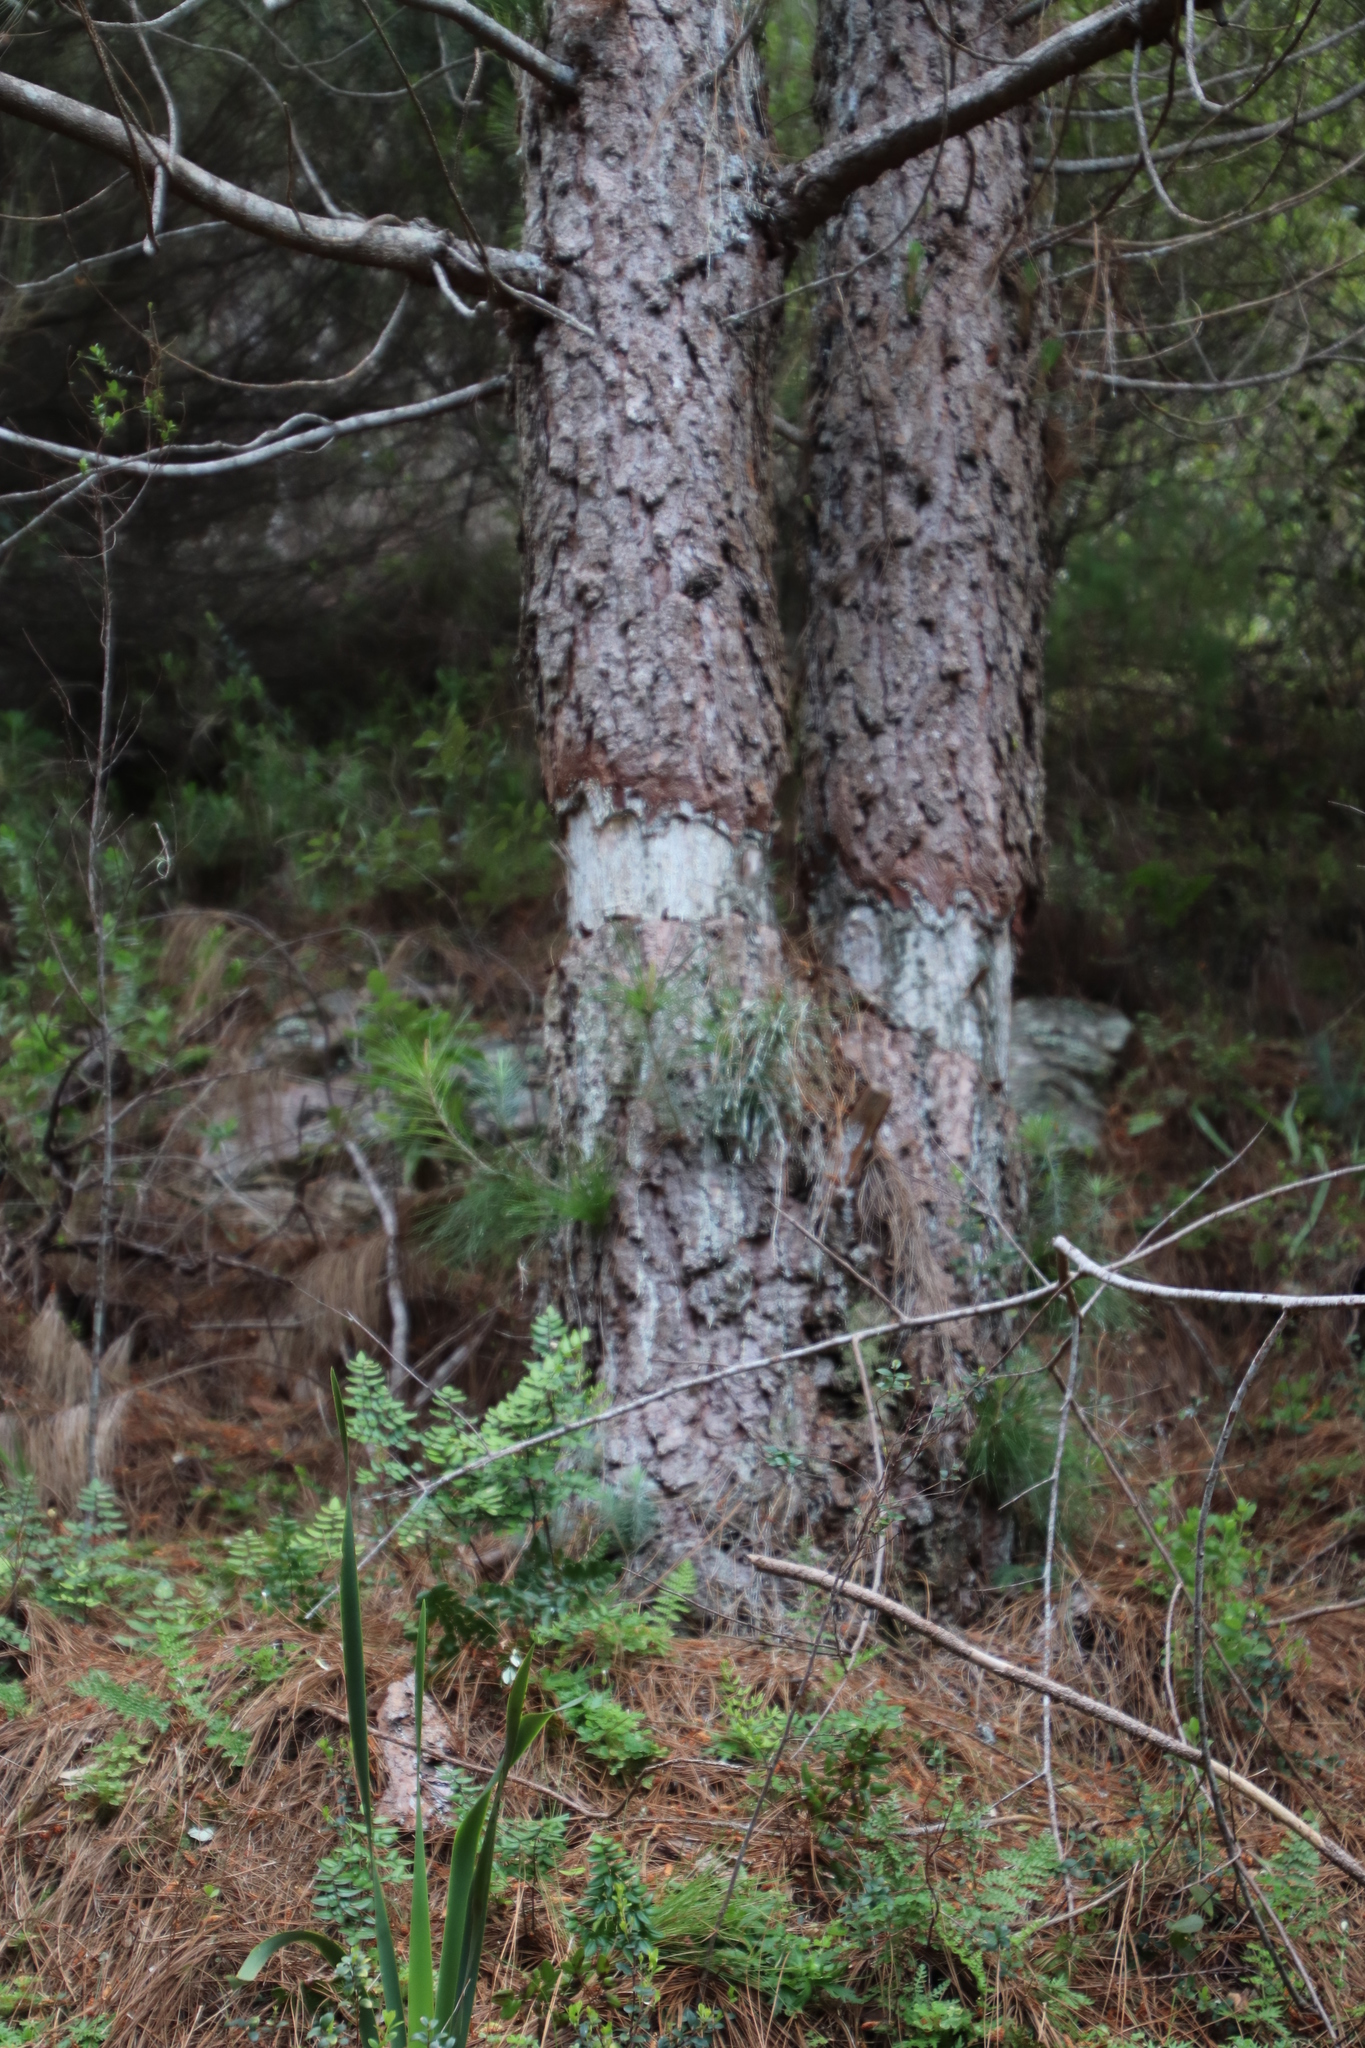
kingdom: Plantae
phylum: Tracheophyta
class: Pinopsida
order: Pinales
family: Pinaceae
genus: Pinus
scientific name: Pinus canariensis
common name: Canary islands pine
